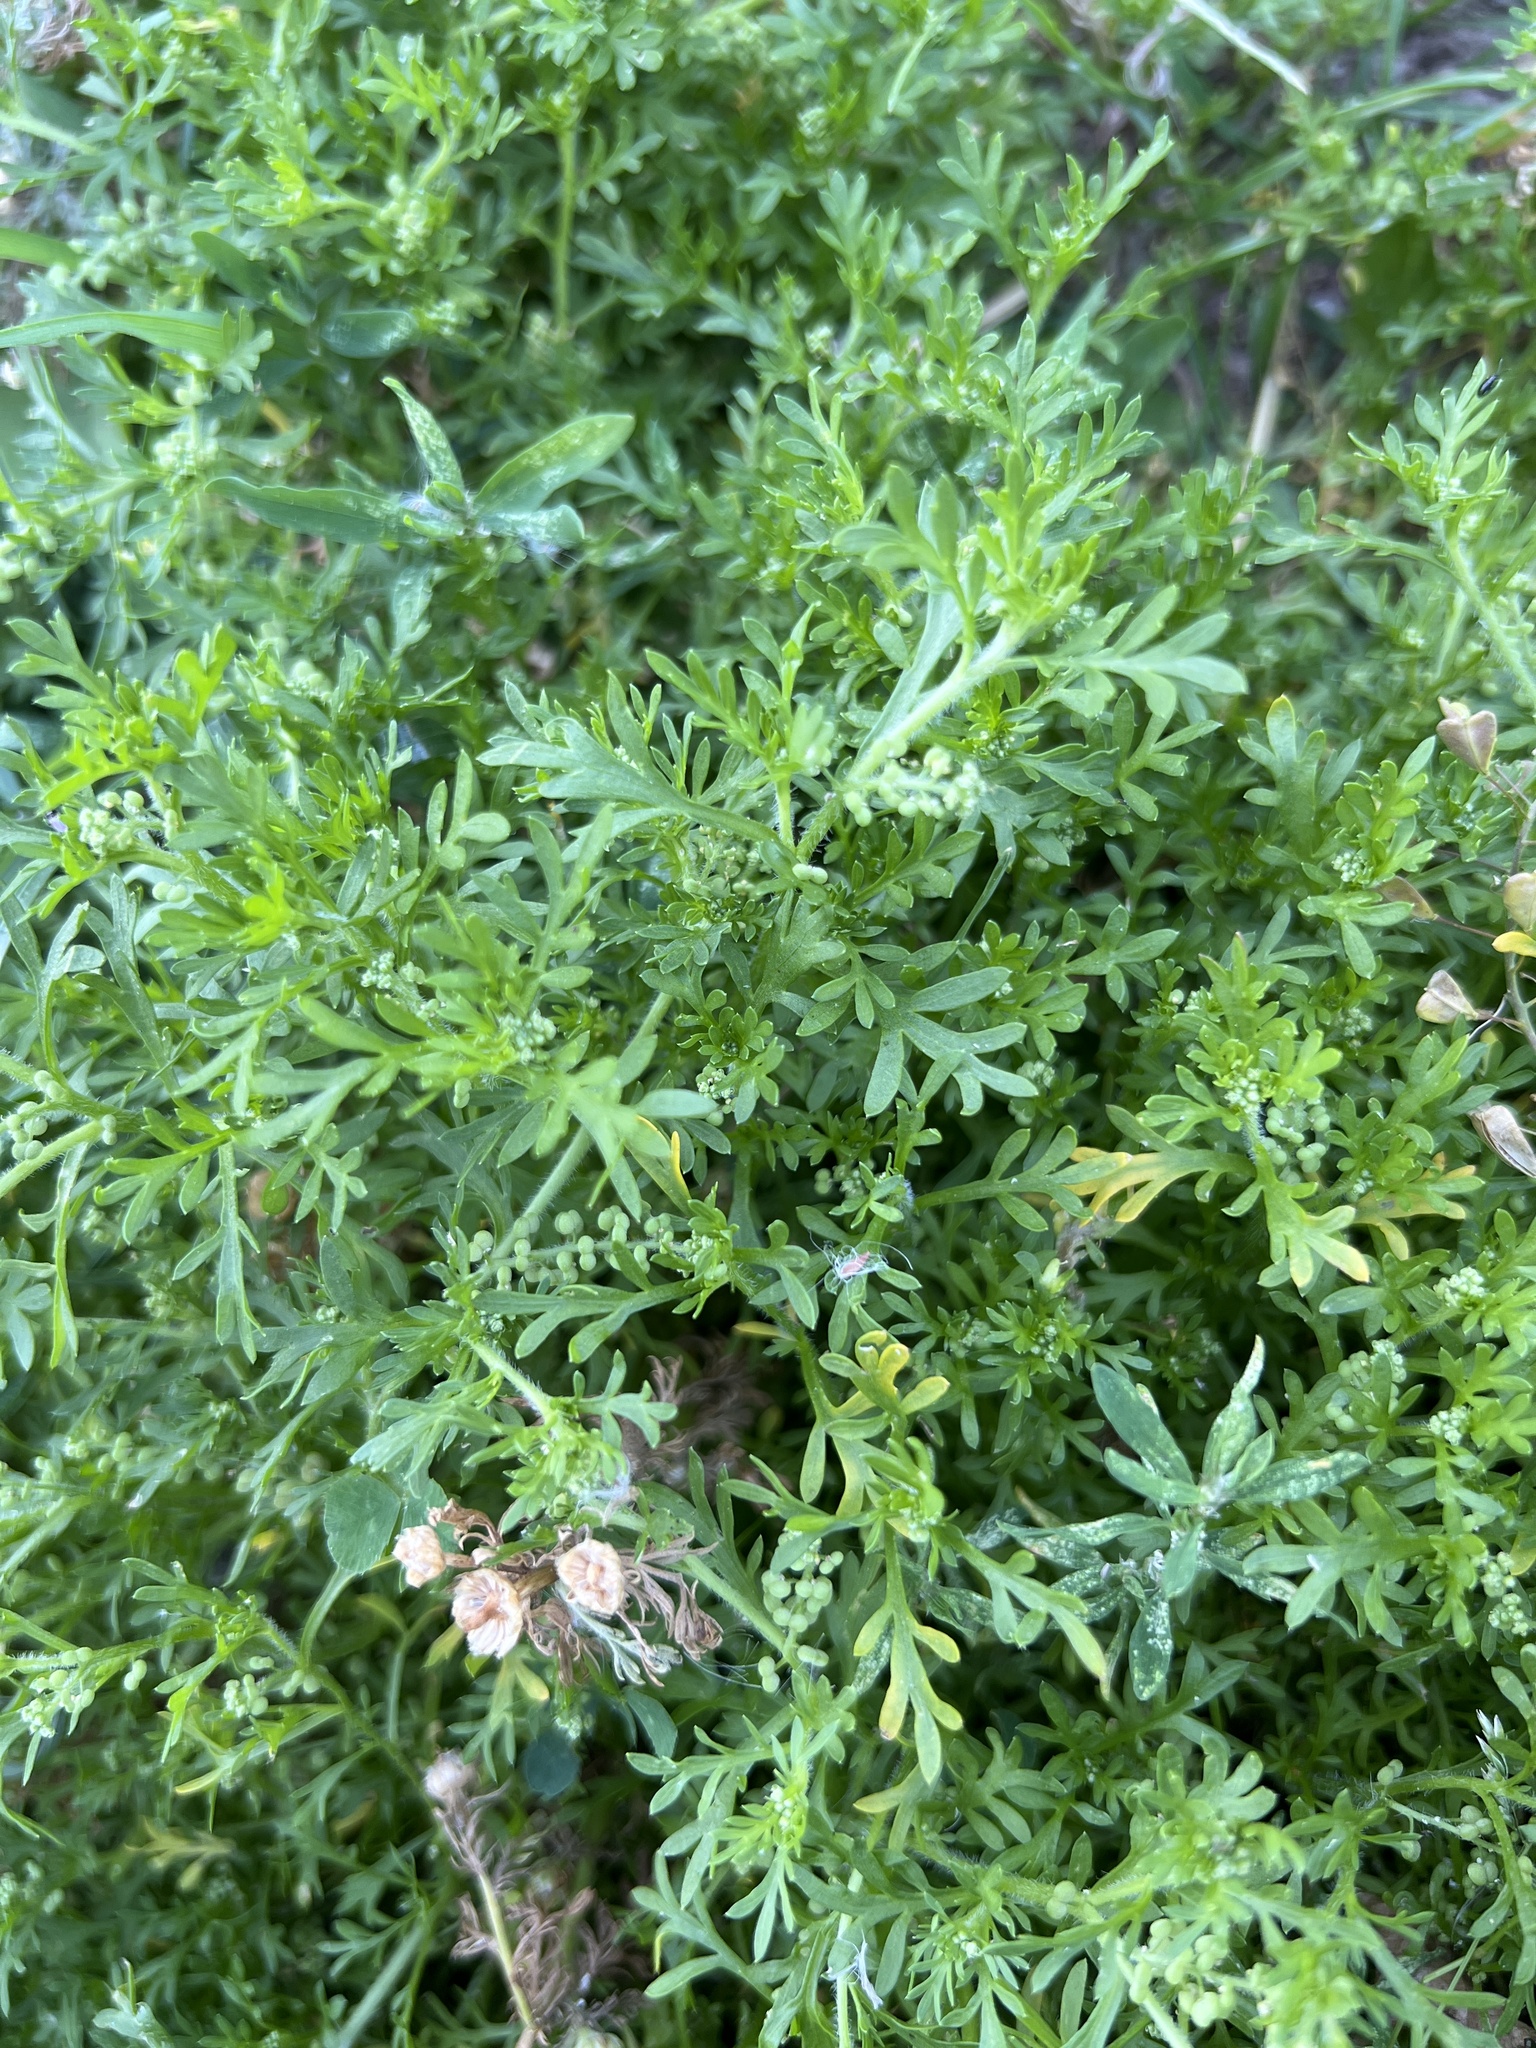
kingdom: Plantae
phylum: Tracheophyta
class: Magnoliopsida
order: Brassicales
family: Brassicaceae
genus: Lepidium
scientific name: Lepidium didymum
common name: Lesser swinecress
